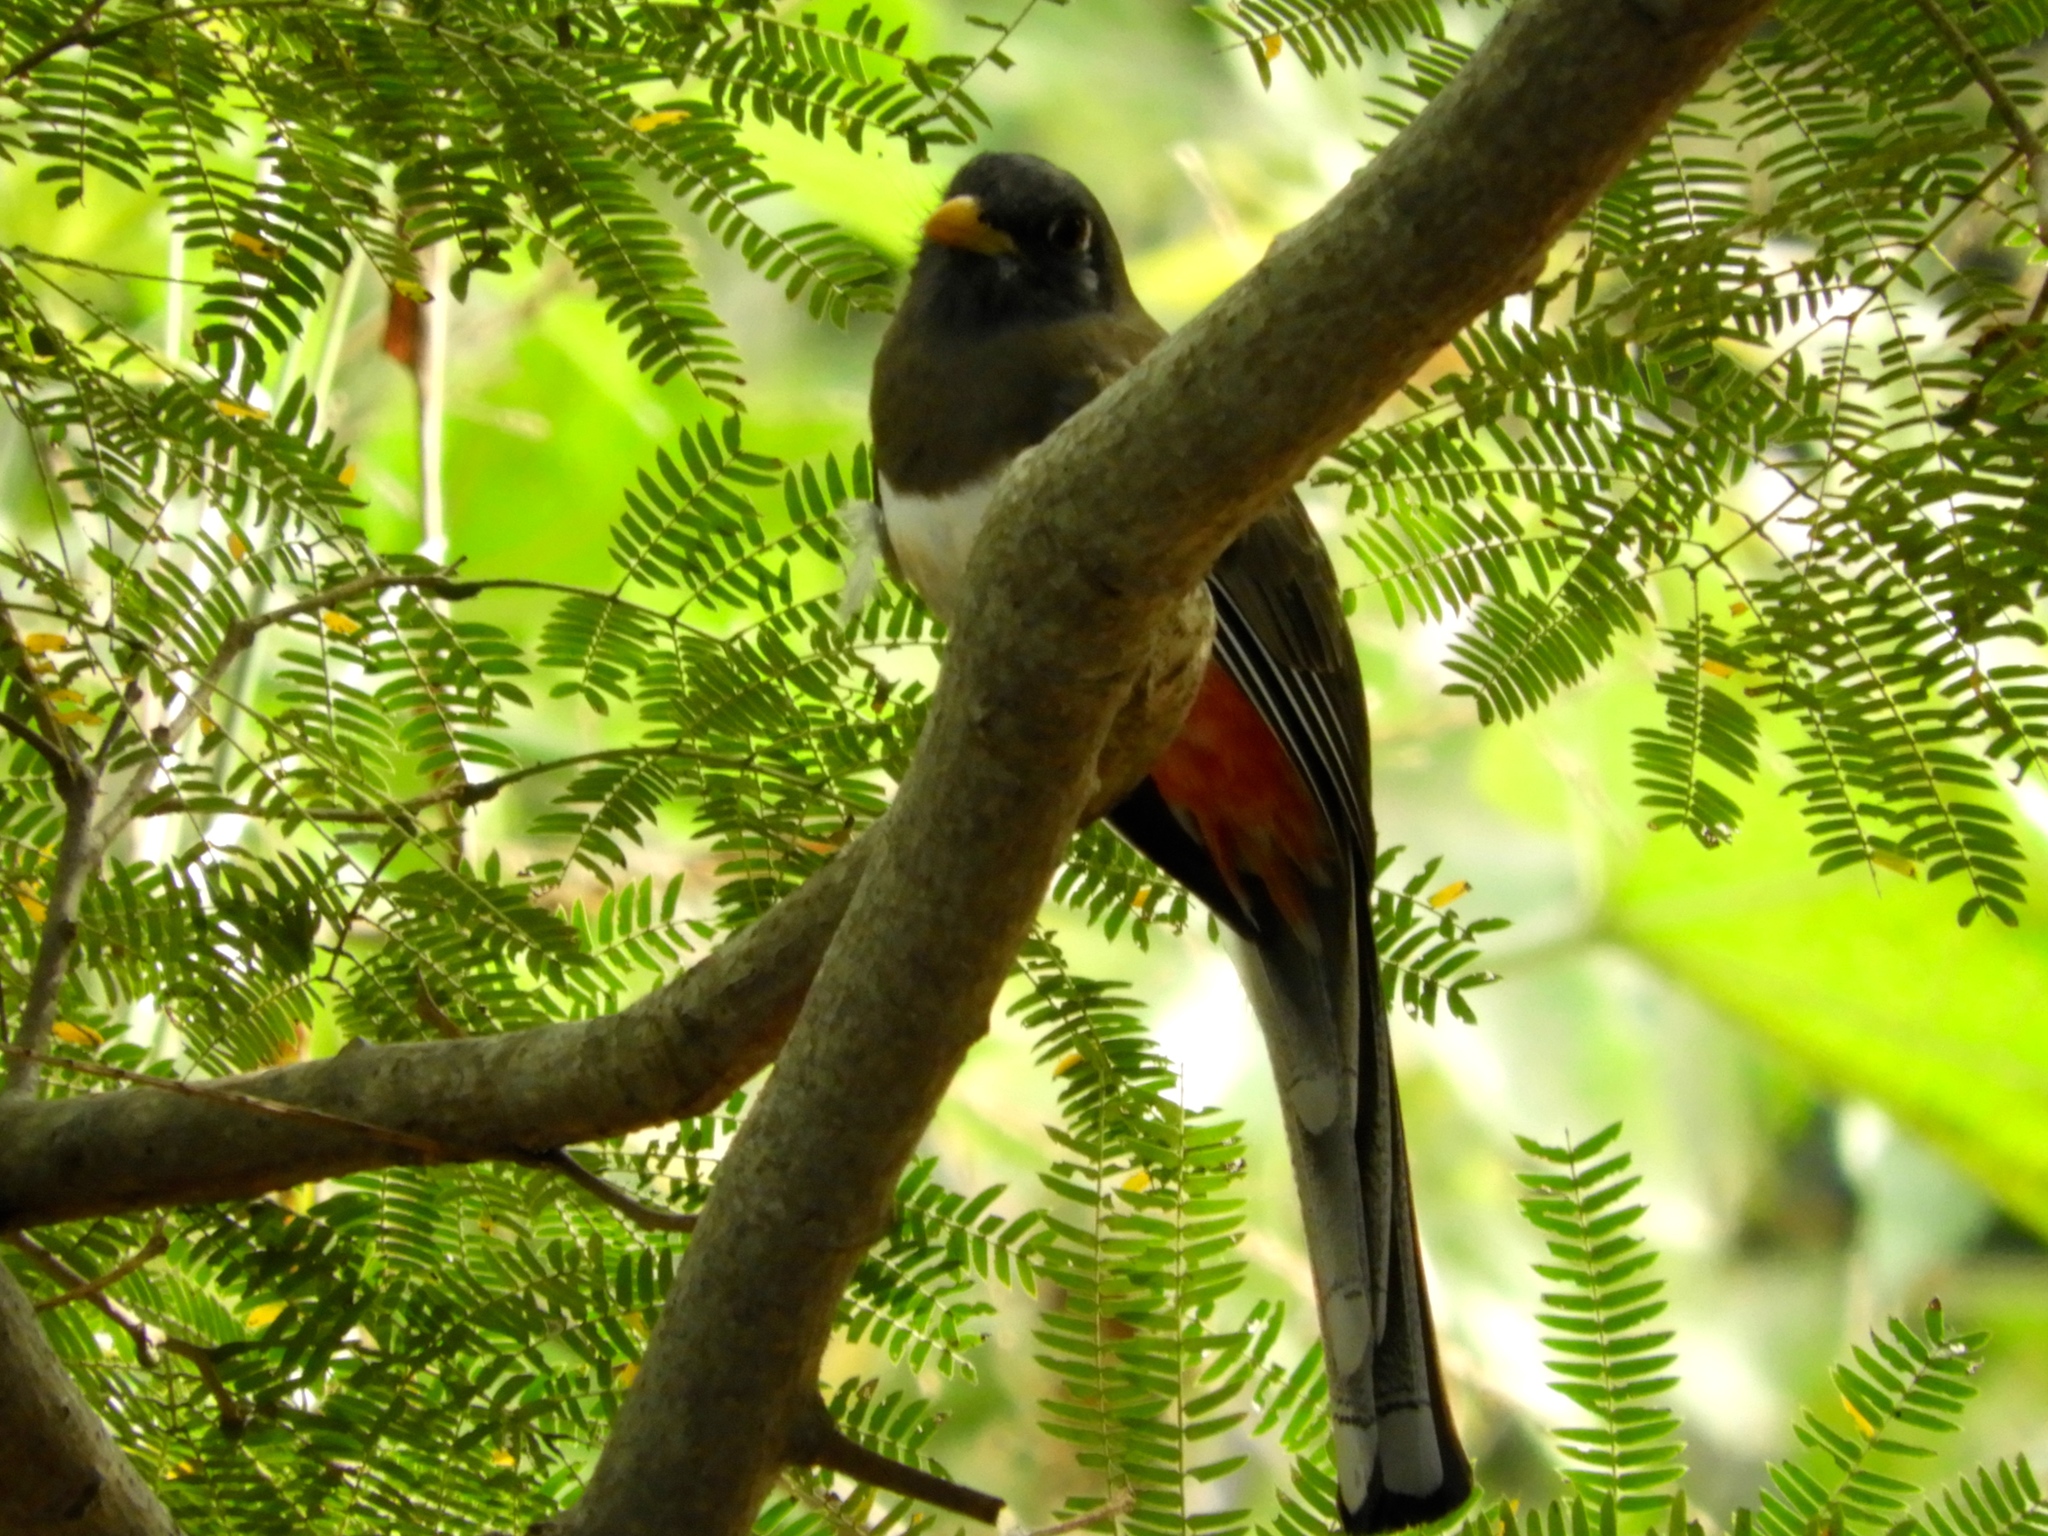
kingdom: Animalia
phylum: Arthropoda
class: Insecta
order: Lepidoptera
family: Nymphalidae
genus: Heliconius
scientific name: Heliconius charithonia
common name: Zebra long wing
